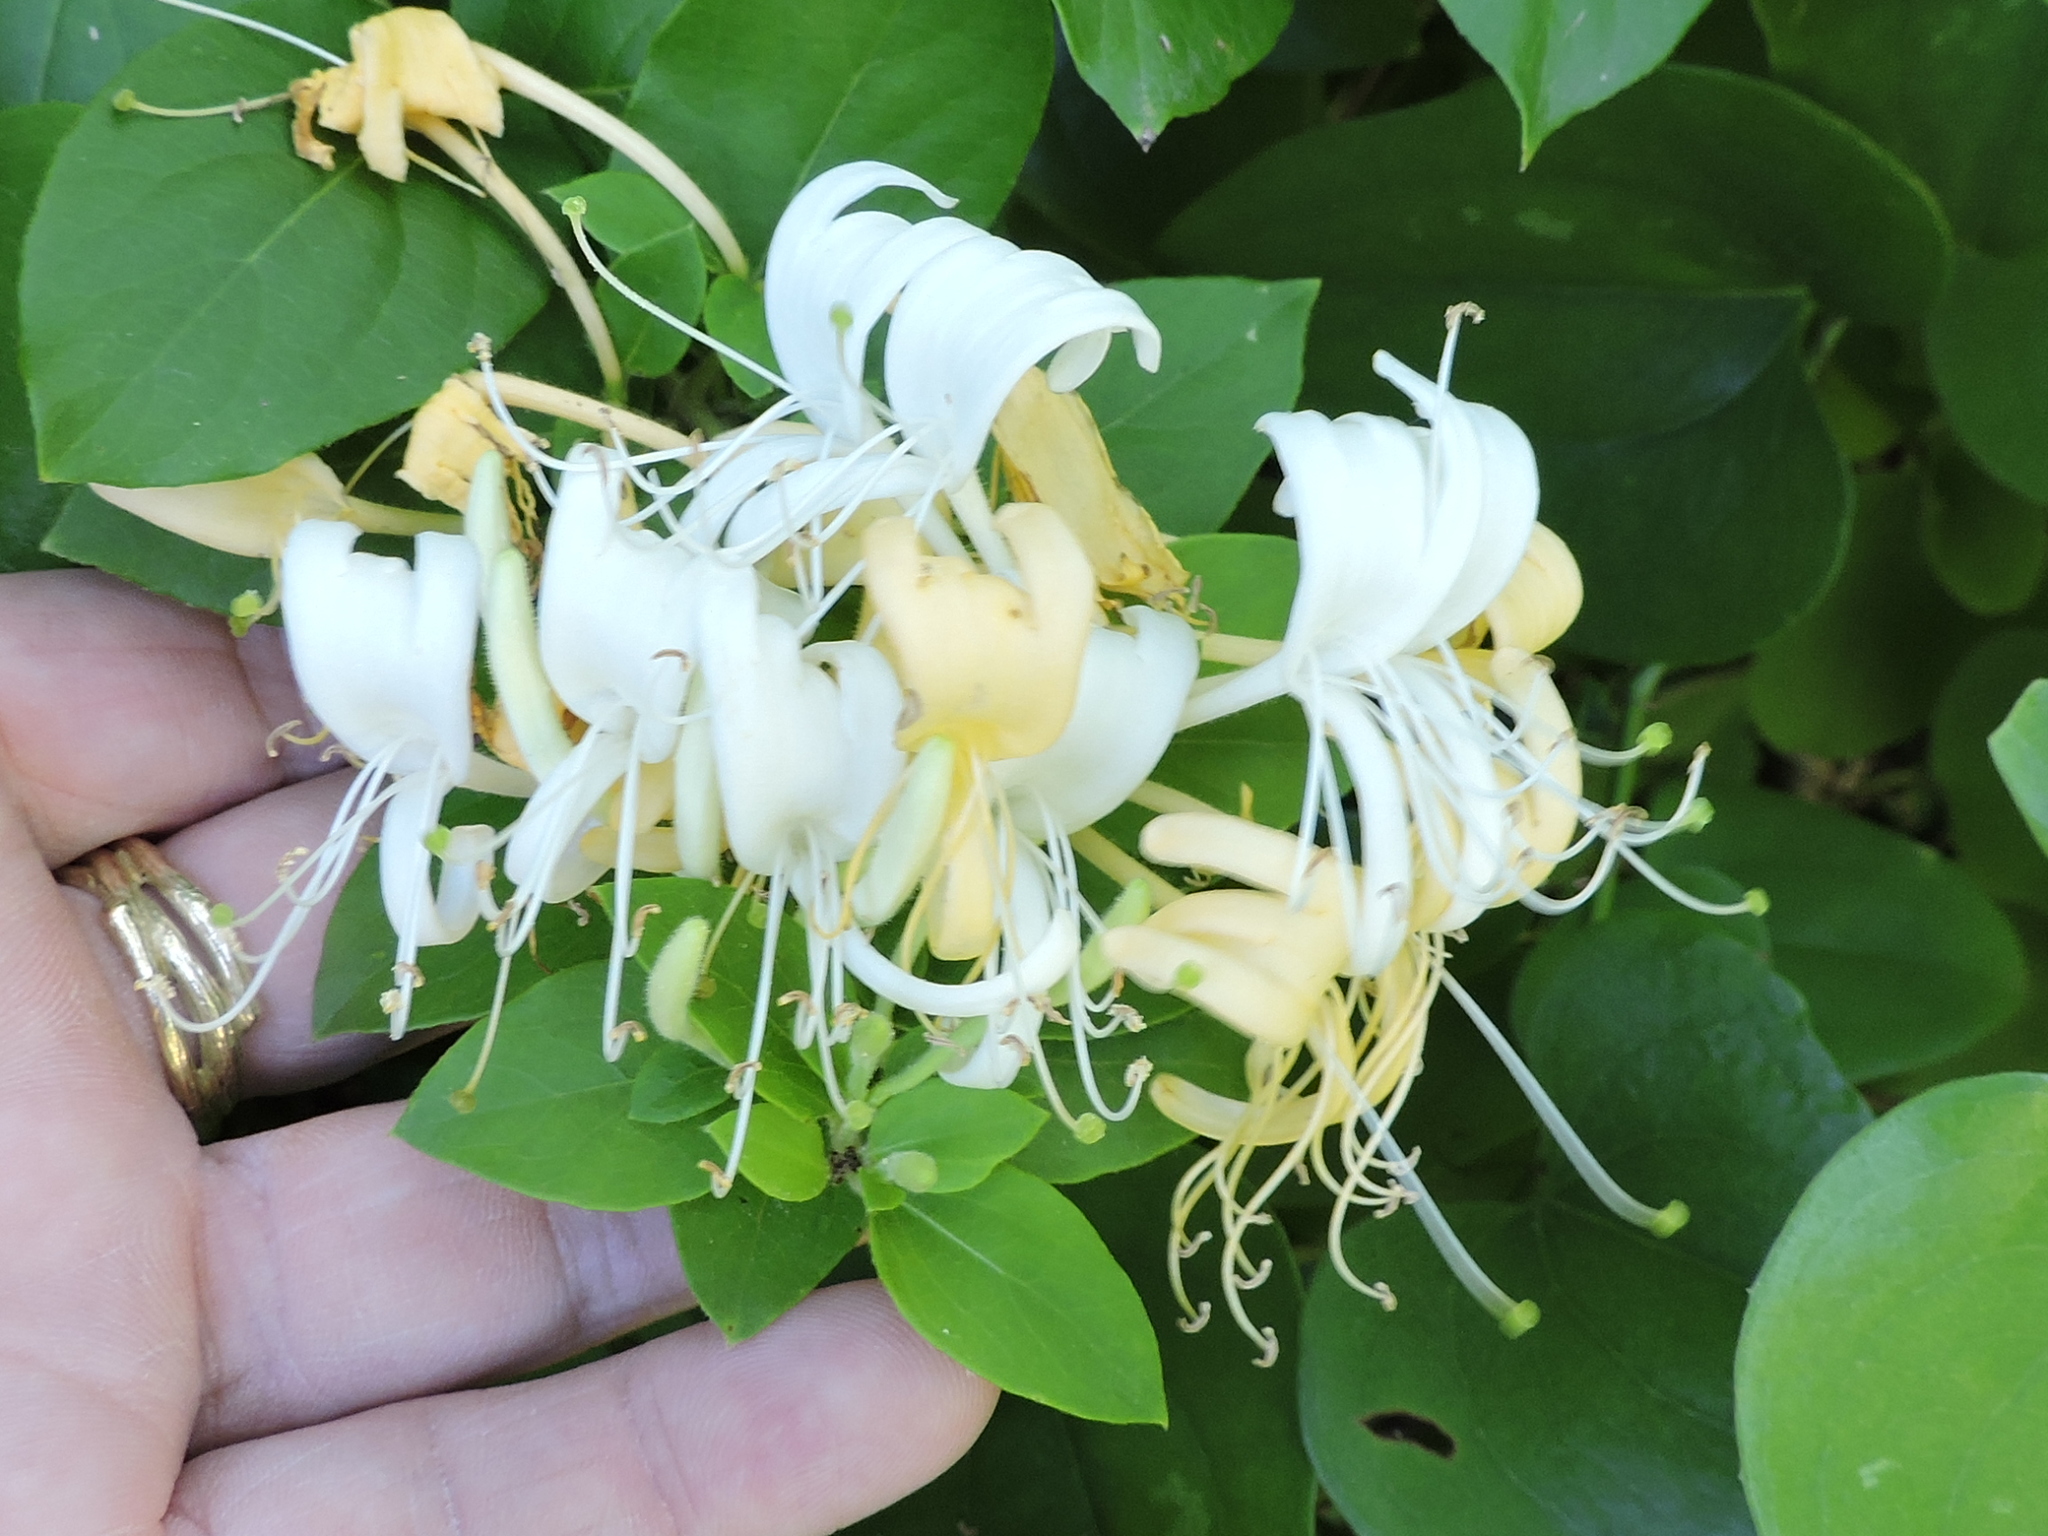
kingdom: Plantae
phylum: Tracheophyta
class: Magnoliopsida
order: Dipsacales
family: Caprifoliaceae
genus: Lonicera
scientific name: Lonicera japonica
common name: Japanese honeysuckle
